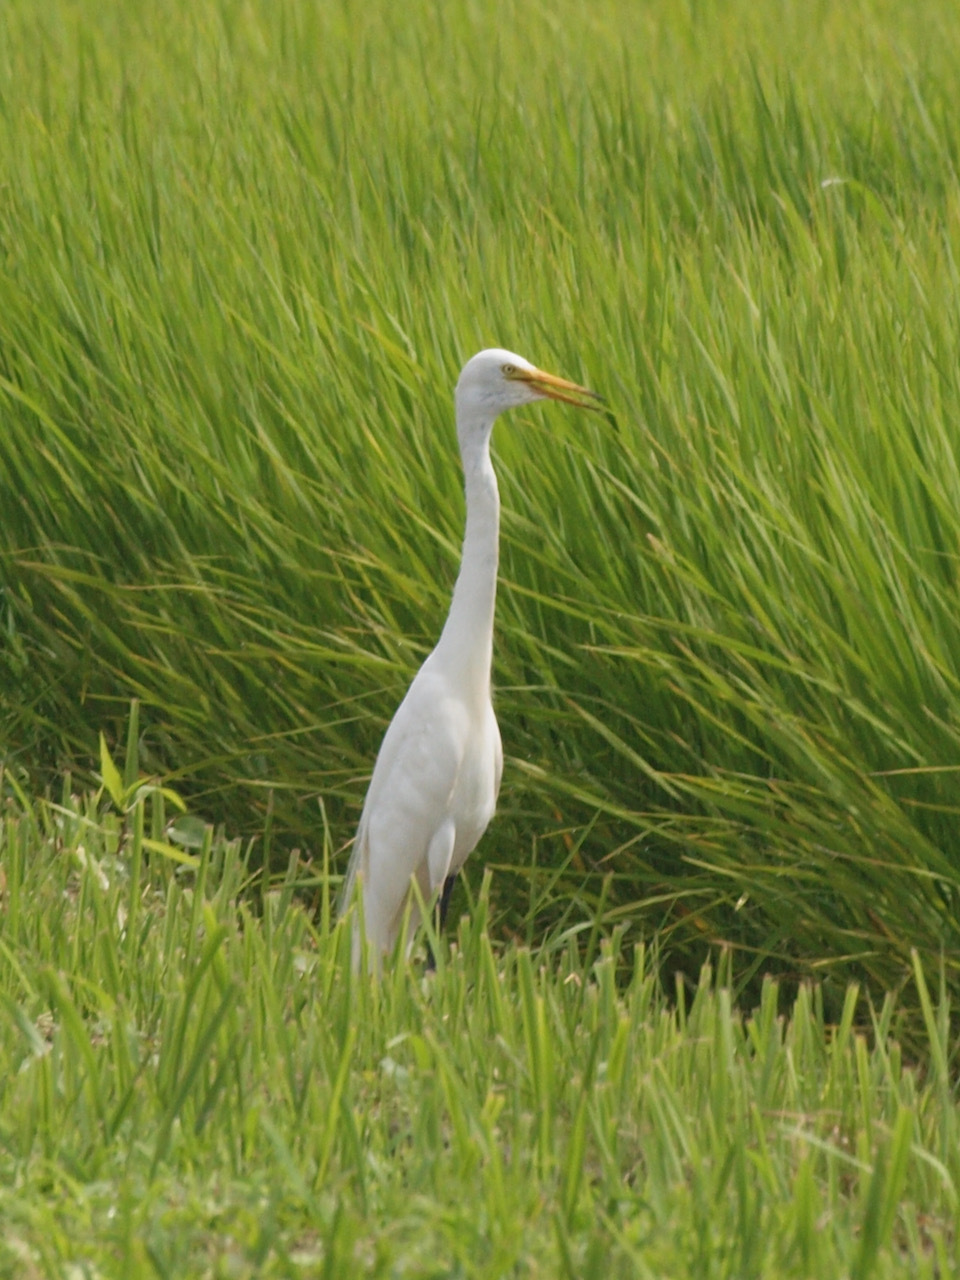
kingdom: Animalia
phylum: Chordata
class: Aves
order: Pelecaniformes
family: Ardeidae
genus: Egretta
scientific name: Egretta intermedia
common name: Intermediate egret
